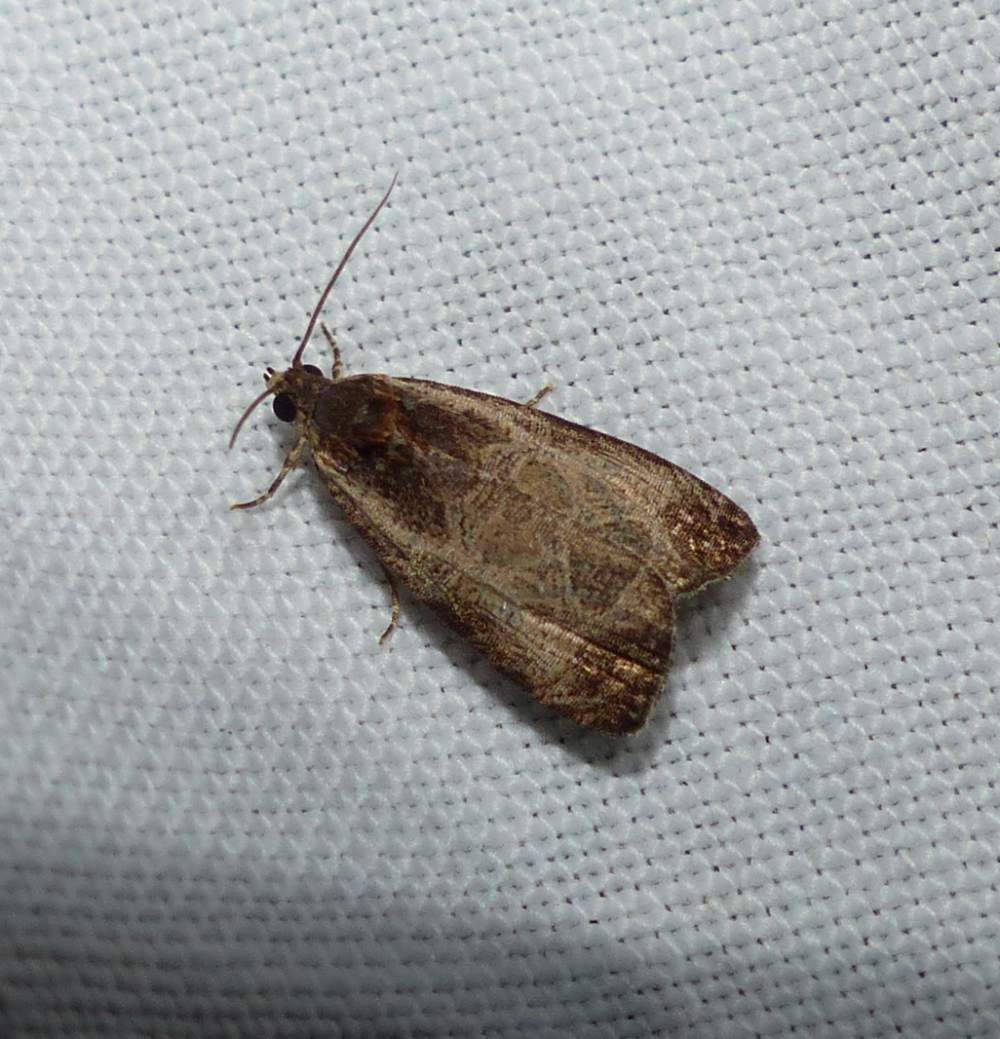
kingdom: Animalia
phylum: Arthropoda
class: Insecta
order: Lepidoptera
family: Tortricidae
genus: Olethreutes
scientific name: Olethreutes inornatana
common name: Inornate olethreutes moth
